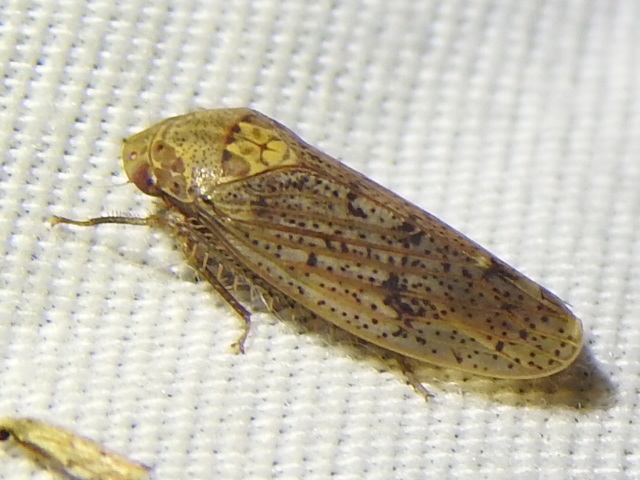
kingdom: Animalia
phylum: Arthropoda
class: Insecta
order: Hemiptera
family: Cicadellidae
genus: Ponana
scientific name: Ponana puncticollis
